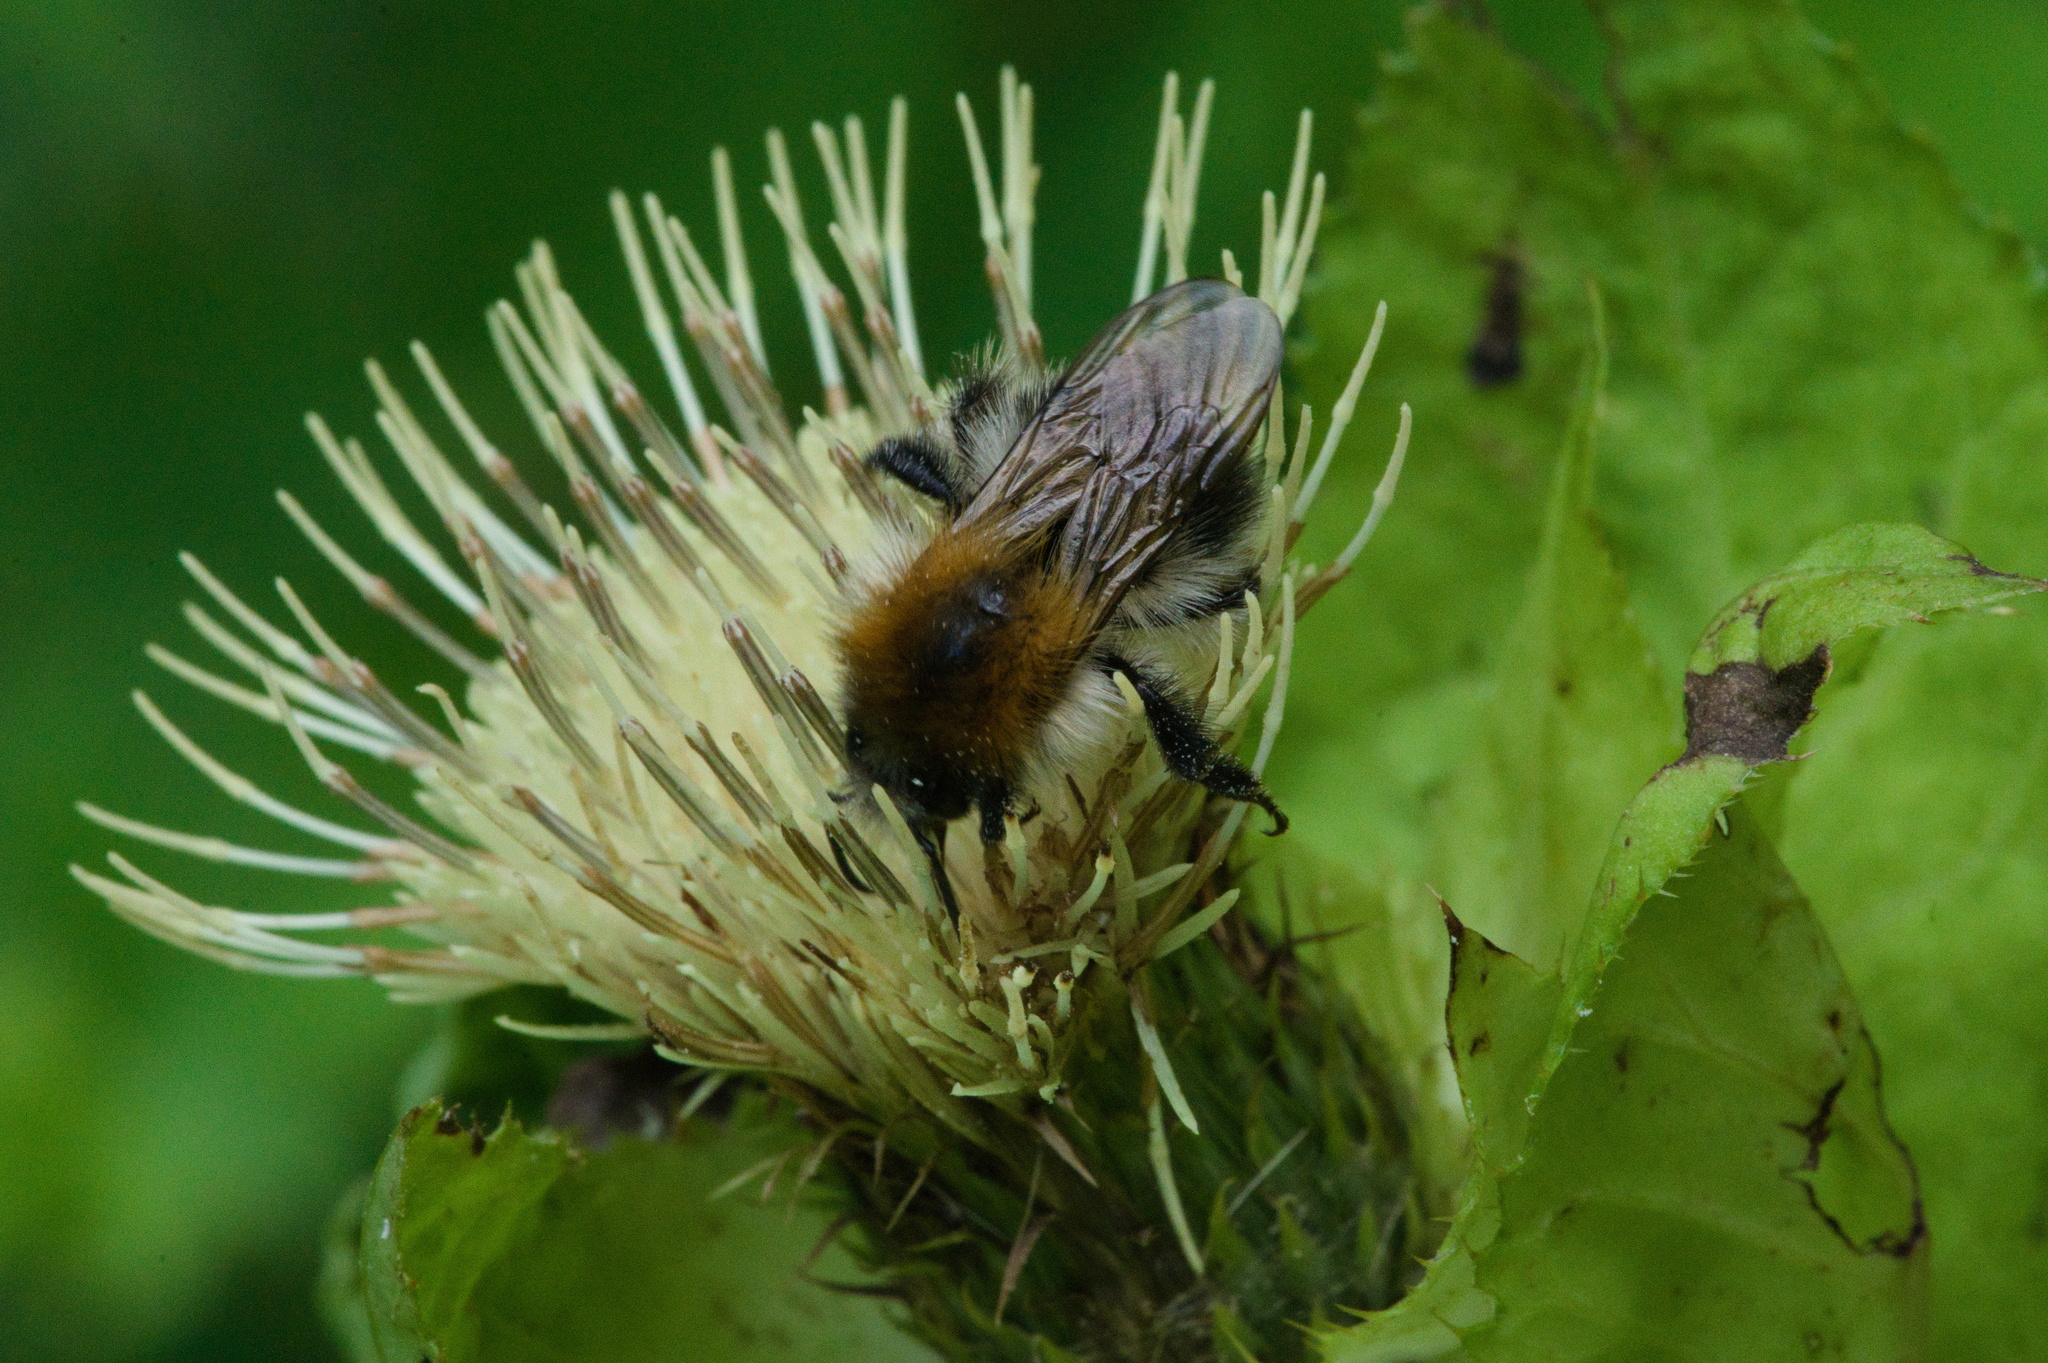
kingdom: Animalia
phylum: Arthropoda
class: Insecta
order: Hymenoptera
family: Apidae
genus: Bombus
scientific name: Bombus pascuorum
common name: Common carder bee
